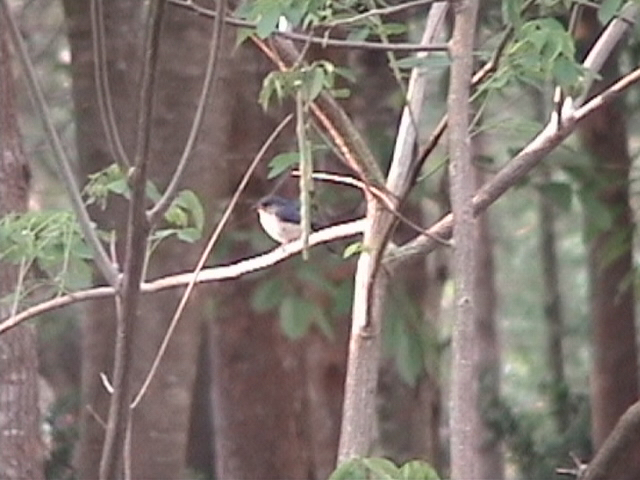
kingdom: Animalia
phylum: Chordata
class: Aves
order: Passeriformes
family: Muscicapidae
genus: Cyornis
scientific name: Cyornis tickelliae
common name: Tickell's blue flycatcher
